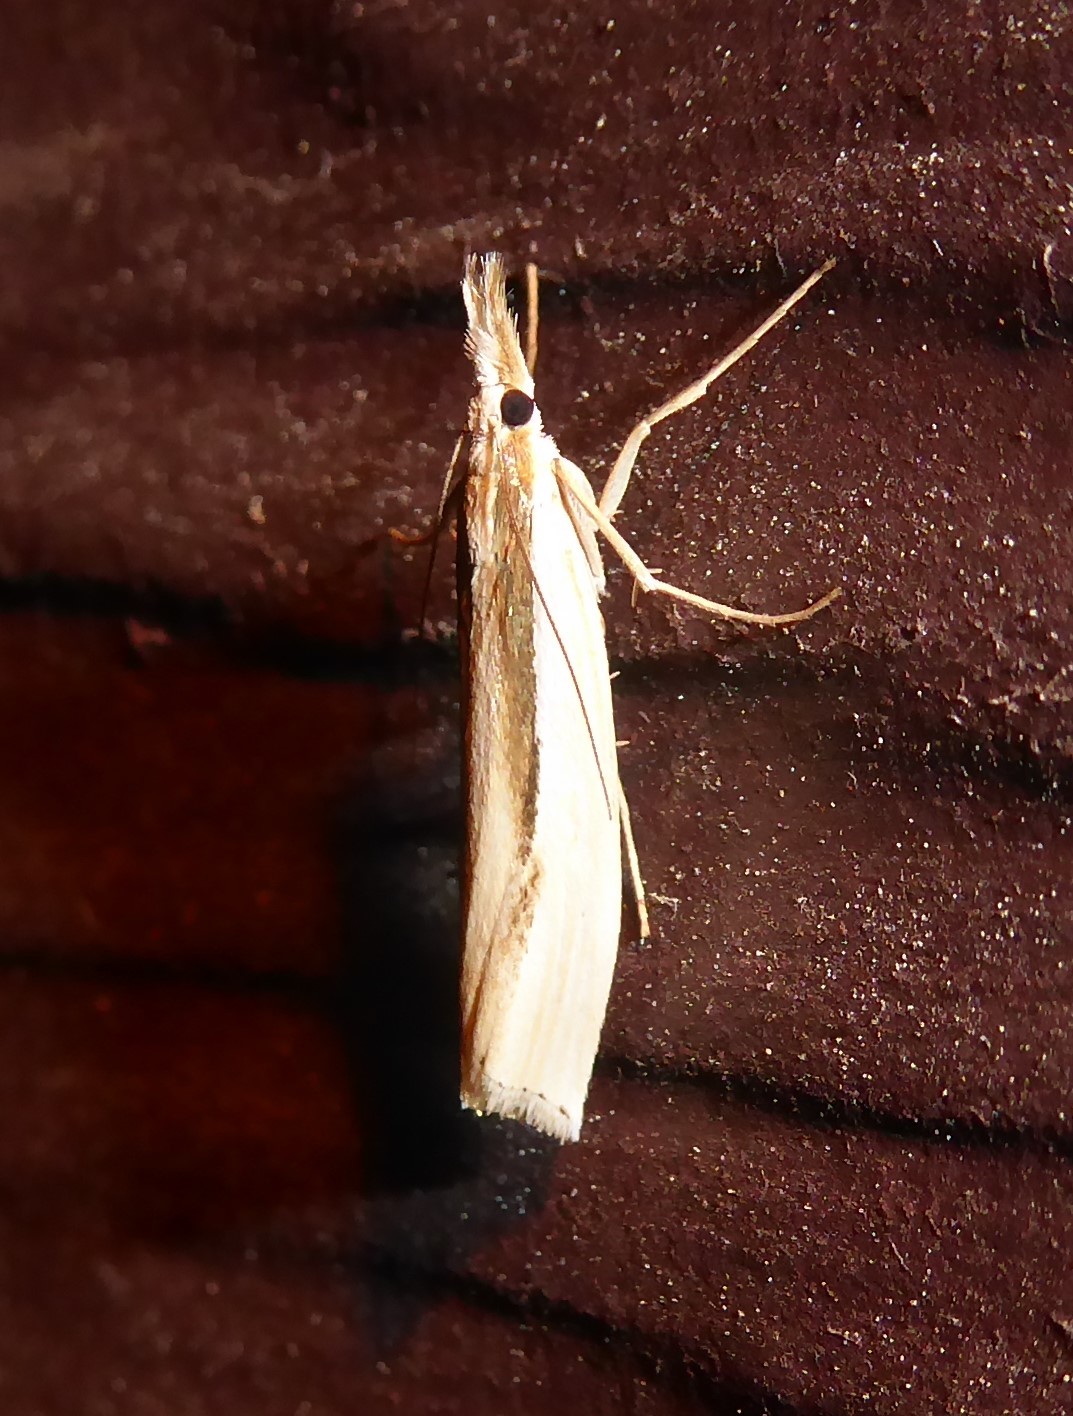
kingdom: Animalia
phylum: Arthropoda
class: Insecta
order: Lepidoptera
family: Crambidae
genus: Orocrambus
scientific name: Orocrambus ramosellus
